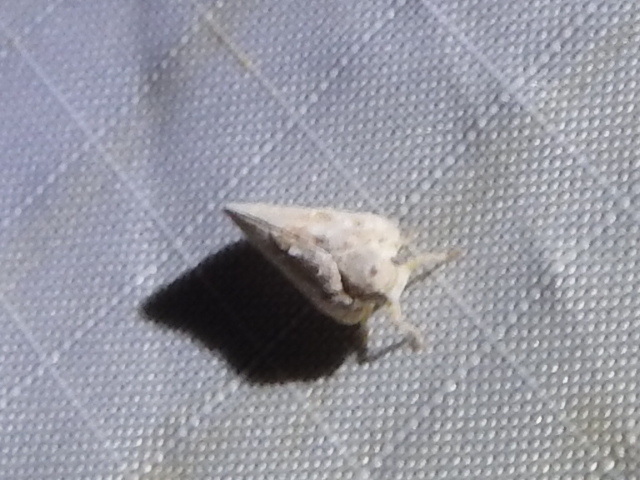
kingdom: Animalia
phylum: Arthropoda
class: Insecta
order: Hemiptera
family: Flatidae
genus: Metcalfa
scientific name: Metcalfa pruinosa
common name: Citrus flatid planthopper
